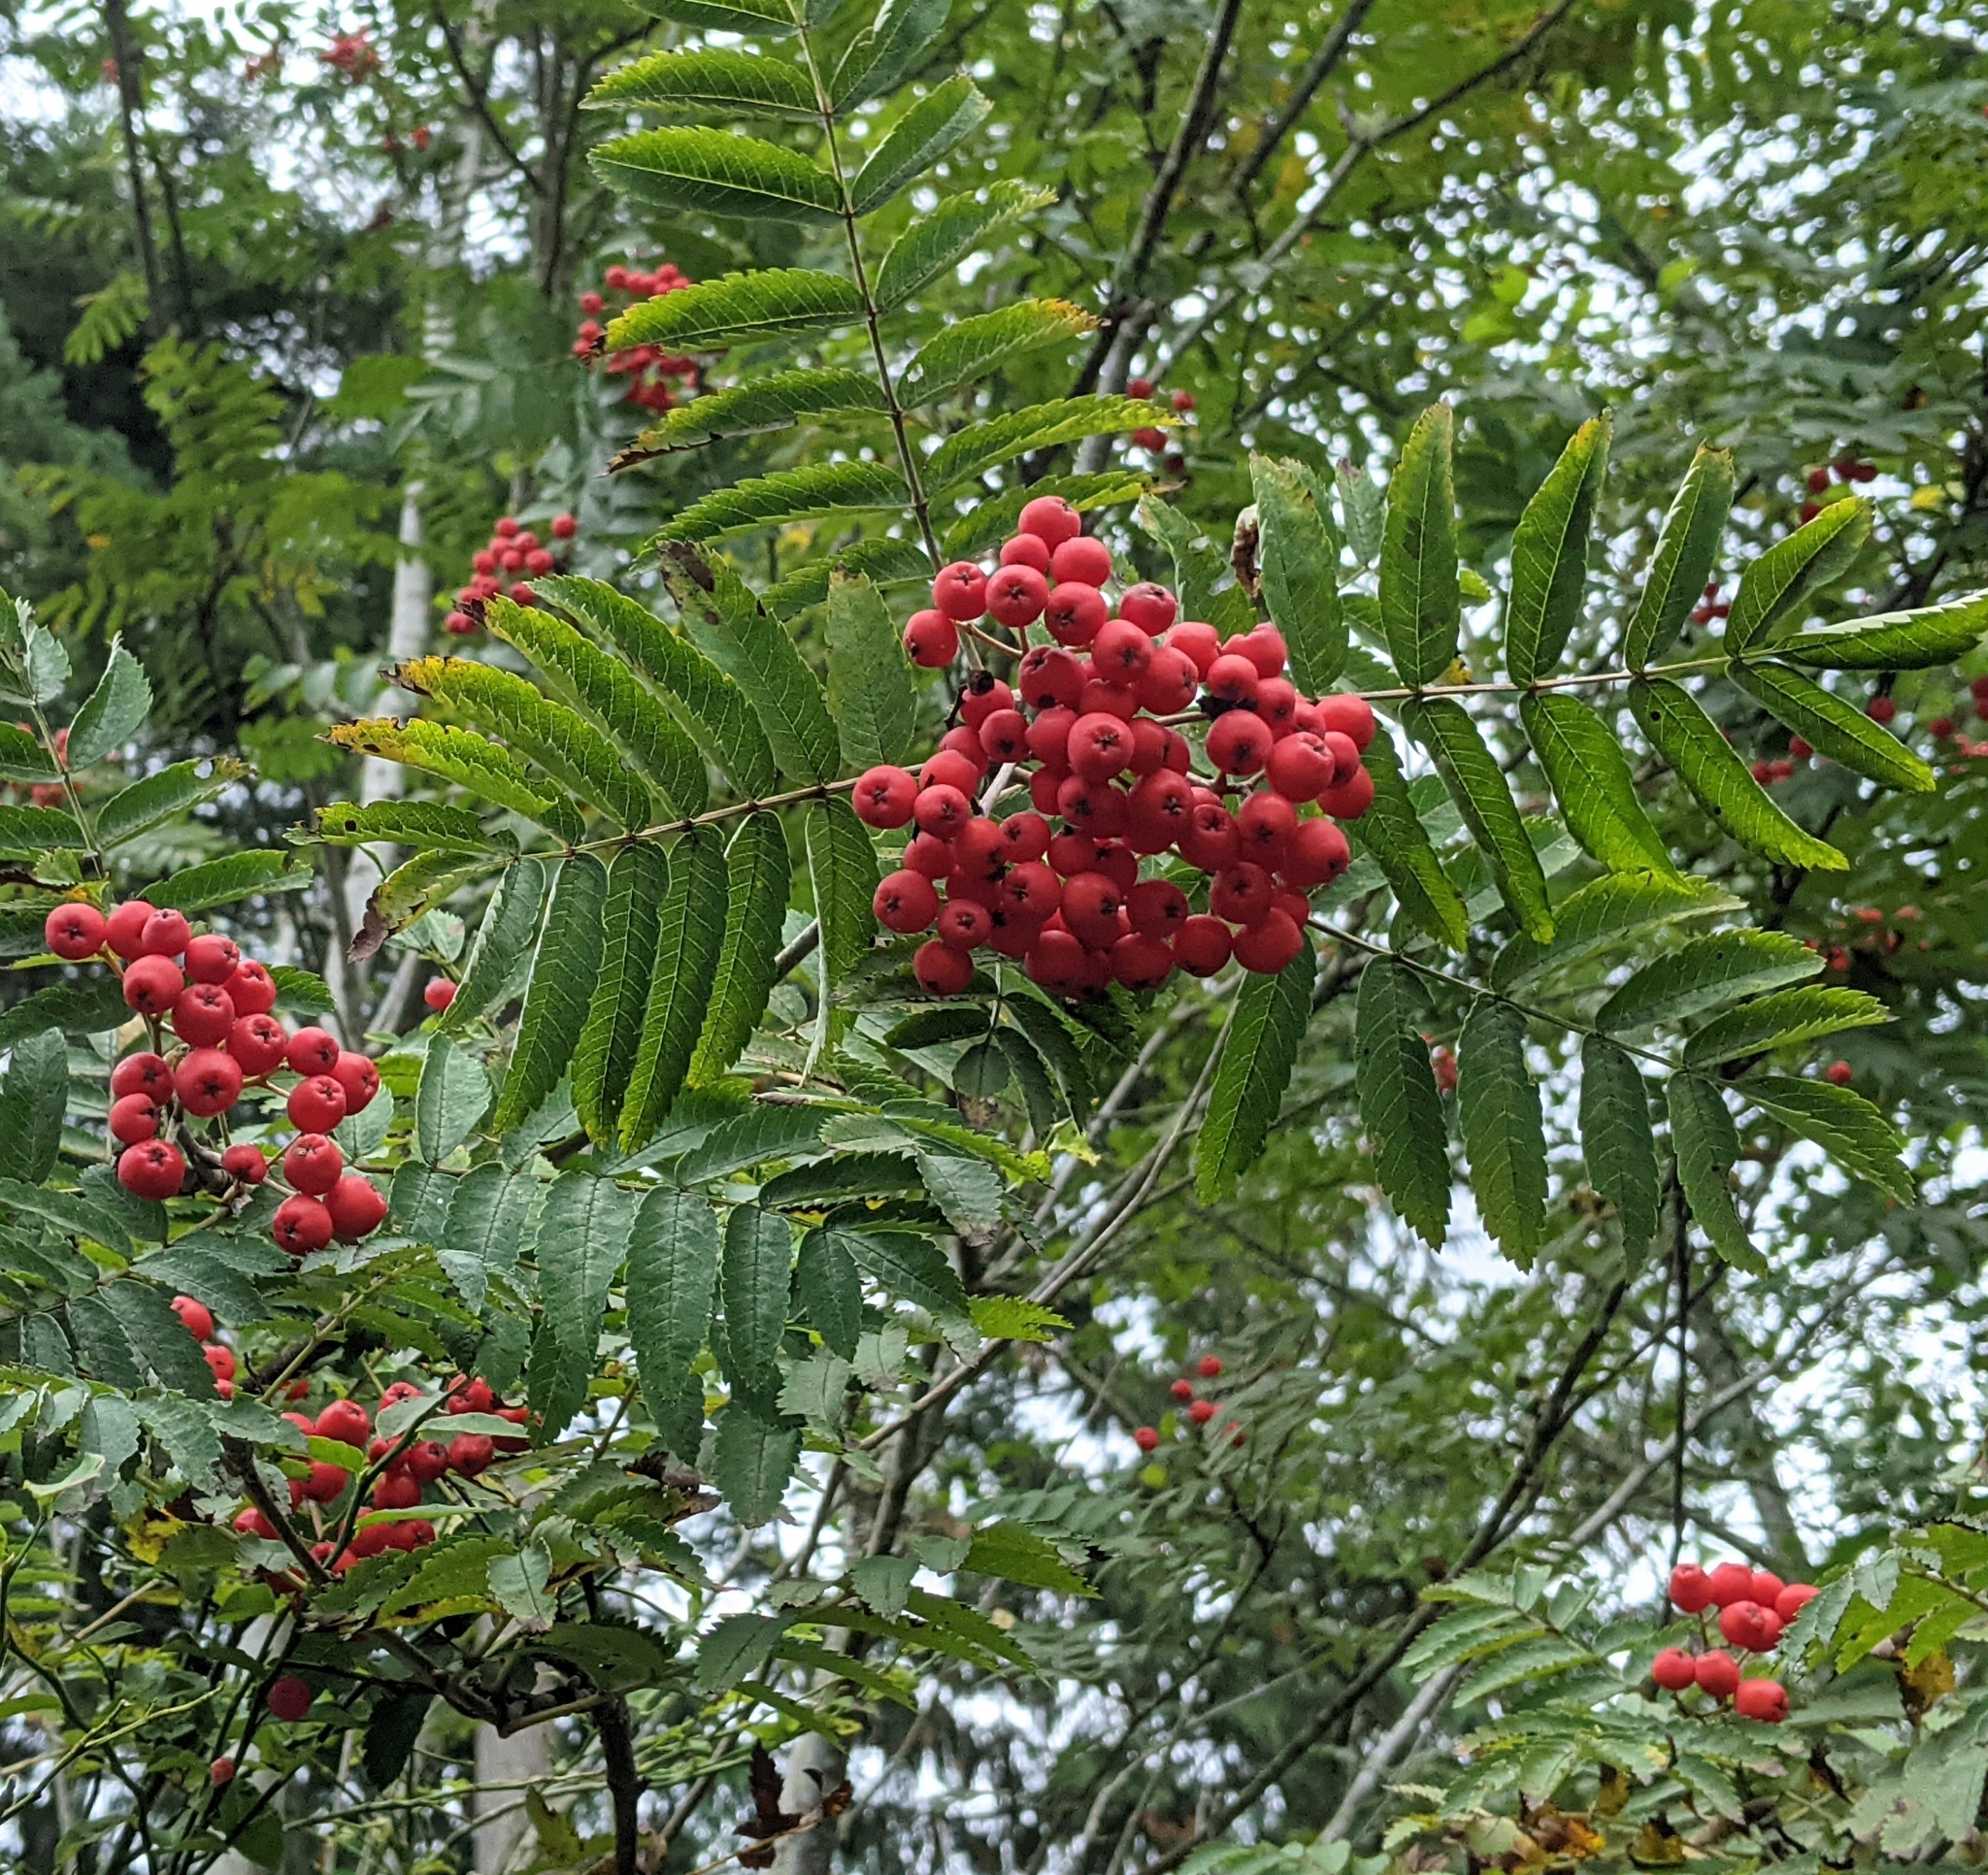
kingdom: Plantae
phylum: Tracheophyta
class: Magnoliopsida
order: Rosales
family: Rosaceae
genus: Sorbus
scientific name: Sorbus aucuparia
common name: Rowan
